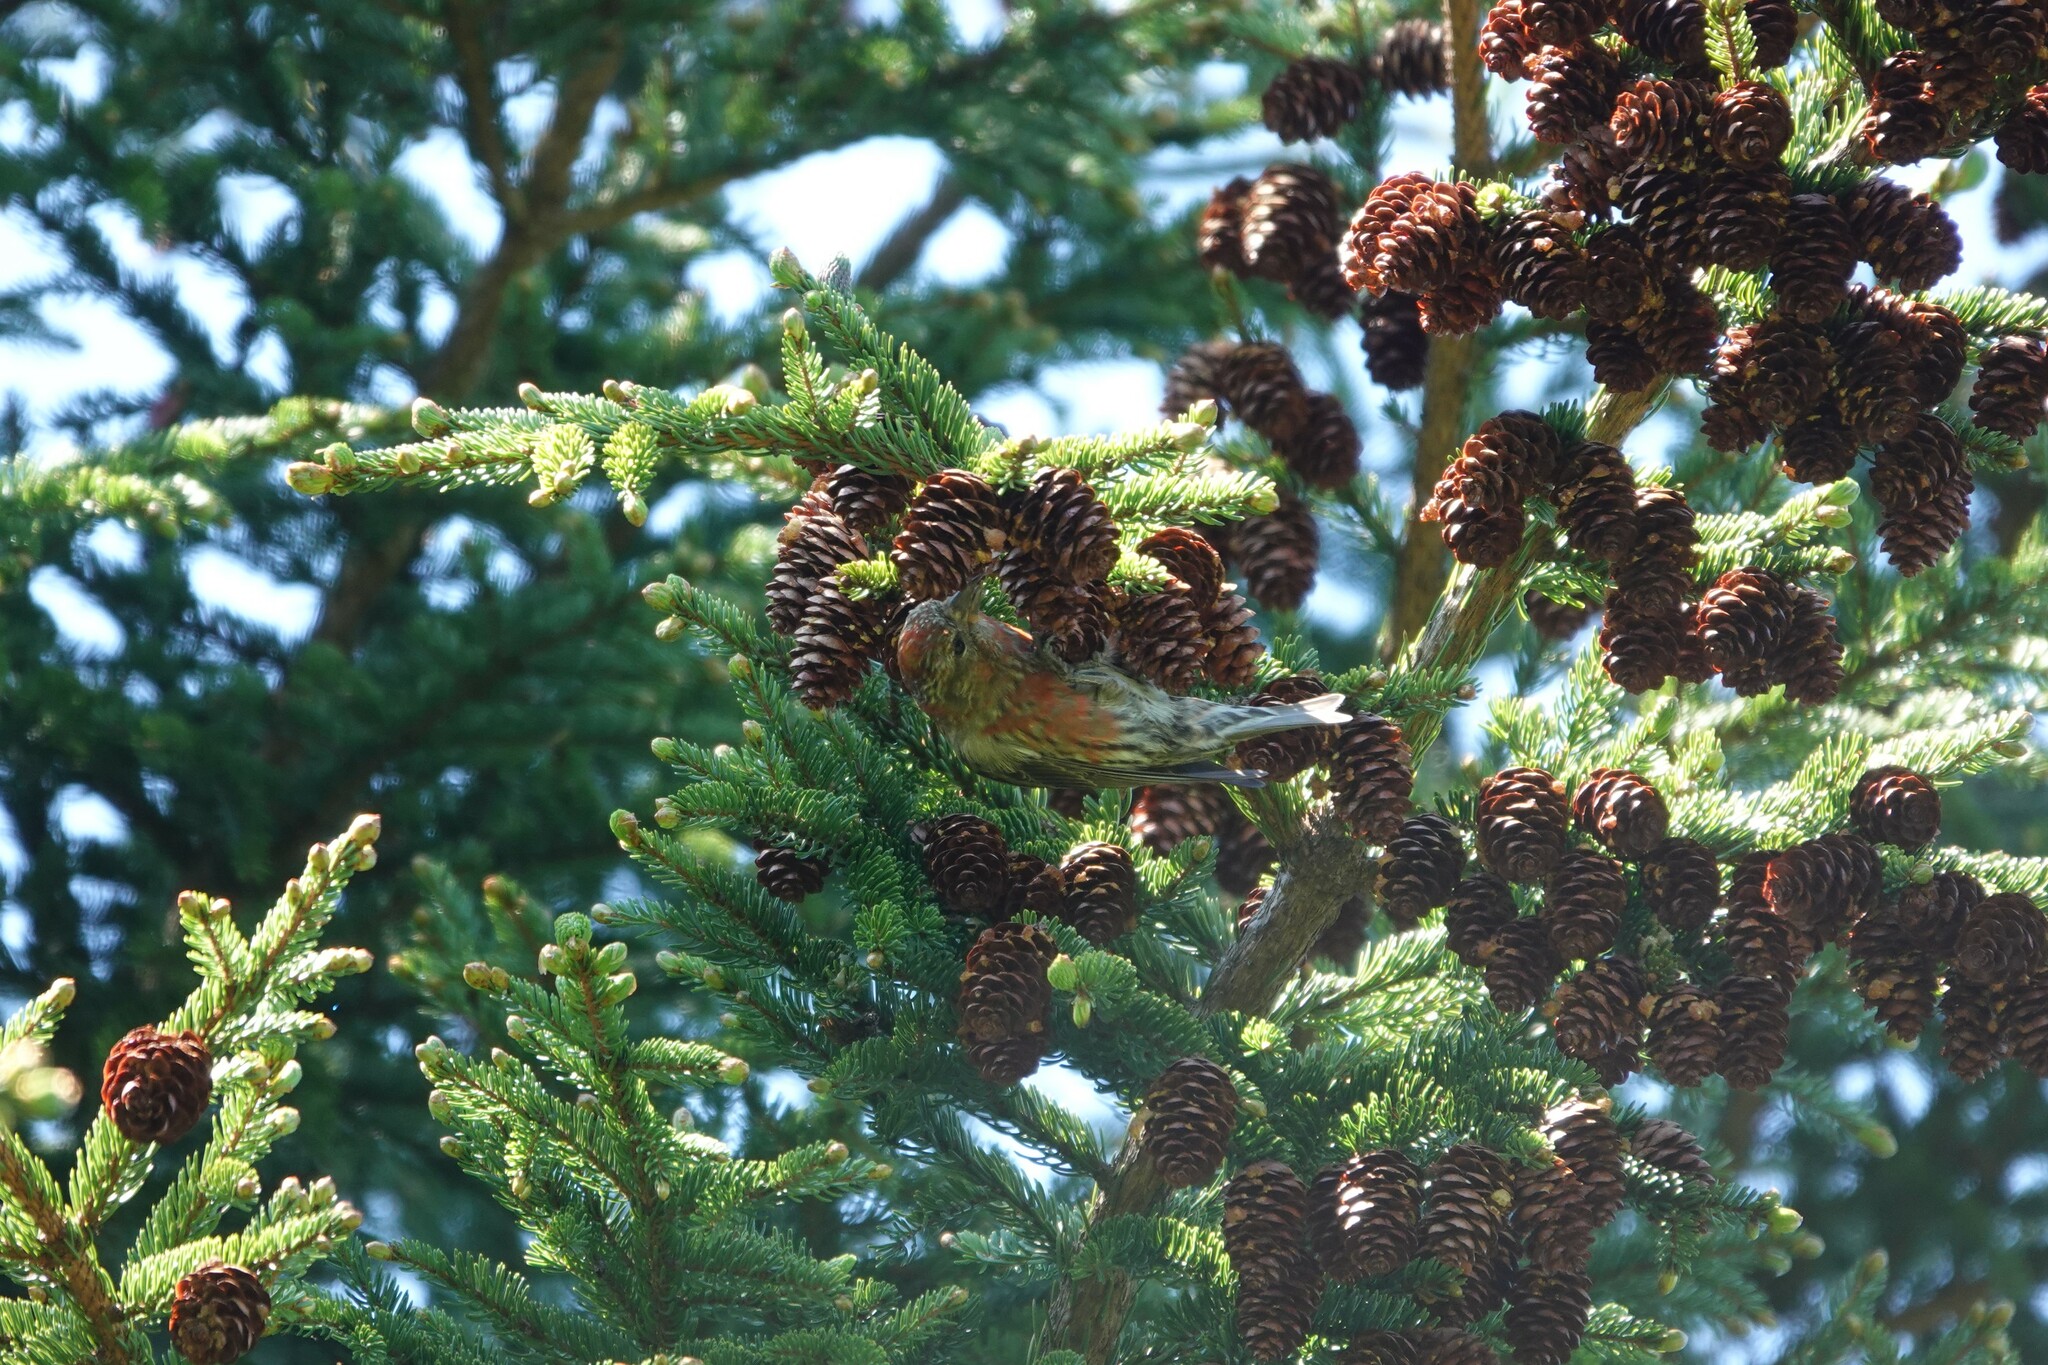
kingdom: Animalia
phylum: Chordata
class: Aves
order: Passeriformes
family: Fringillidae
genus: Loxia
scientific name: Loxia curvirostra
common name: Red crossbill
